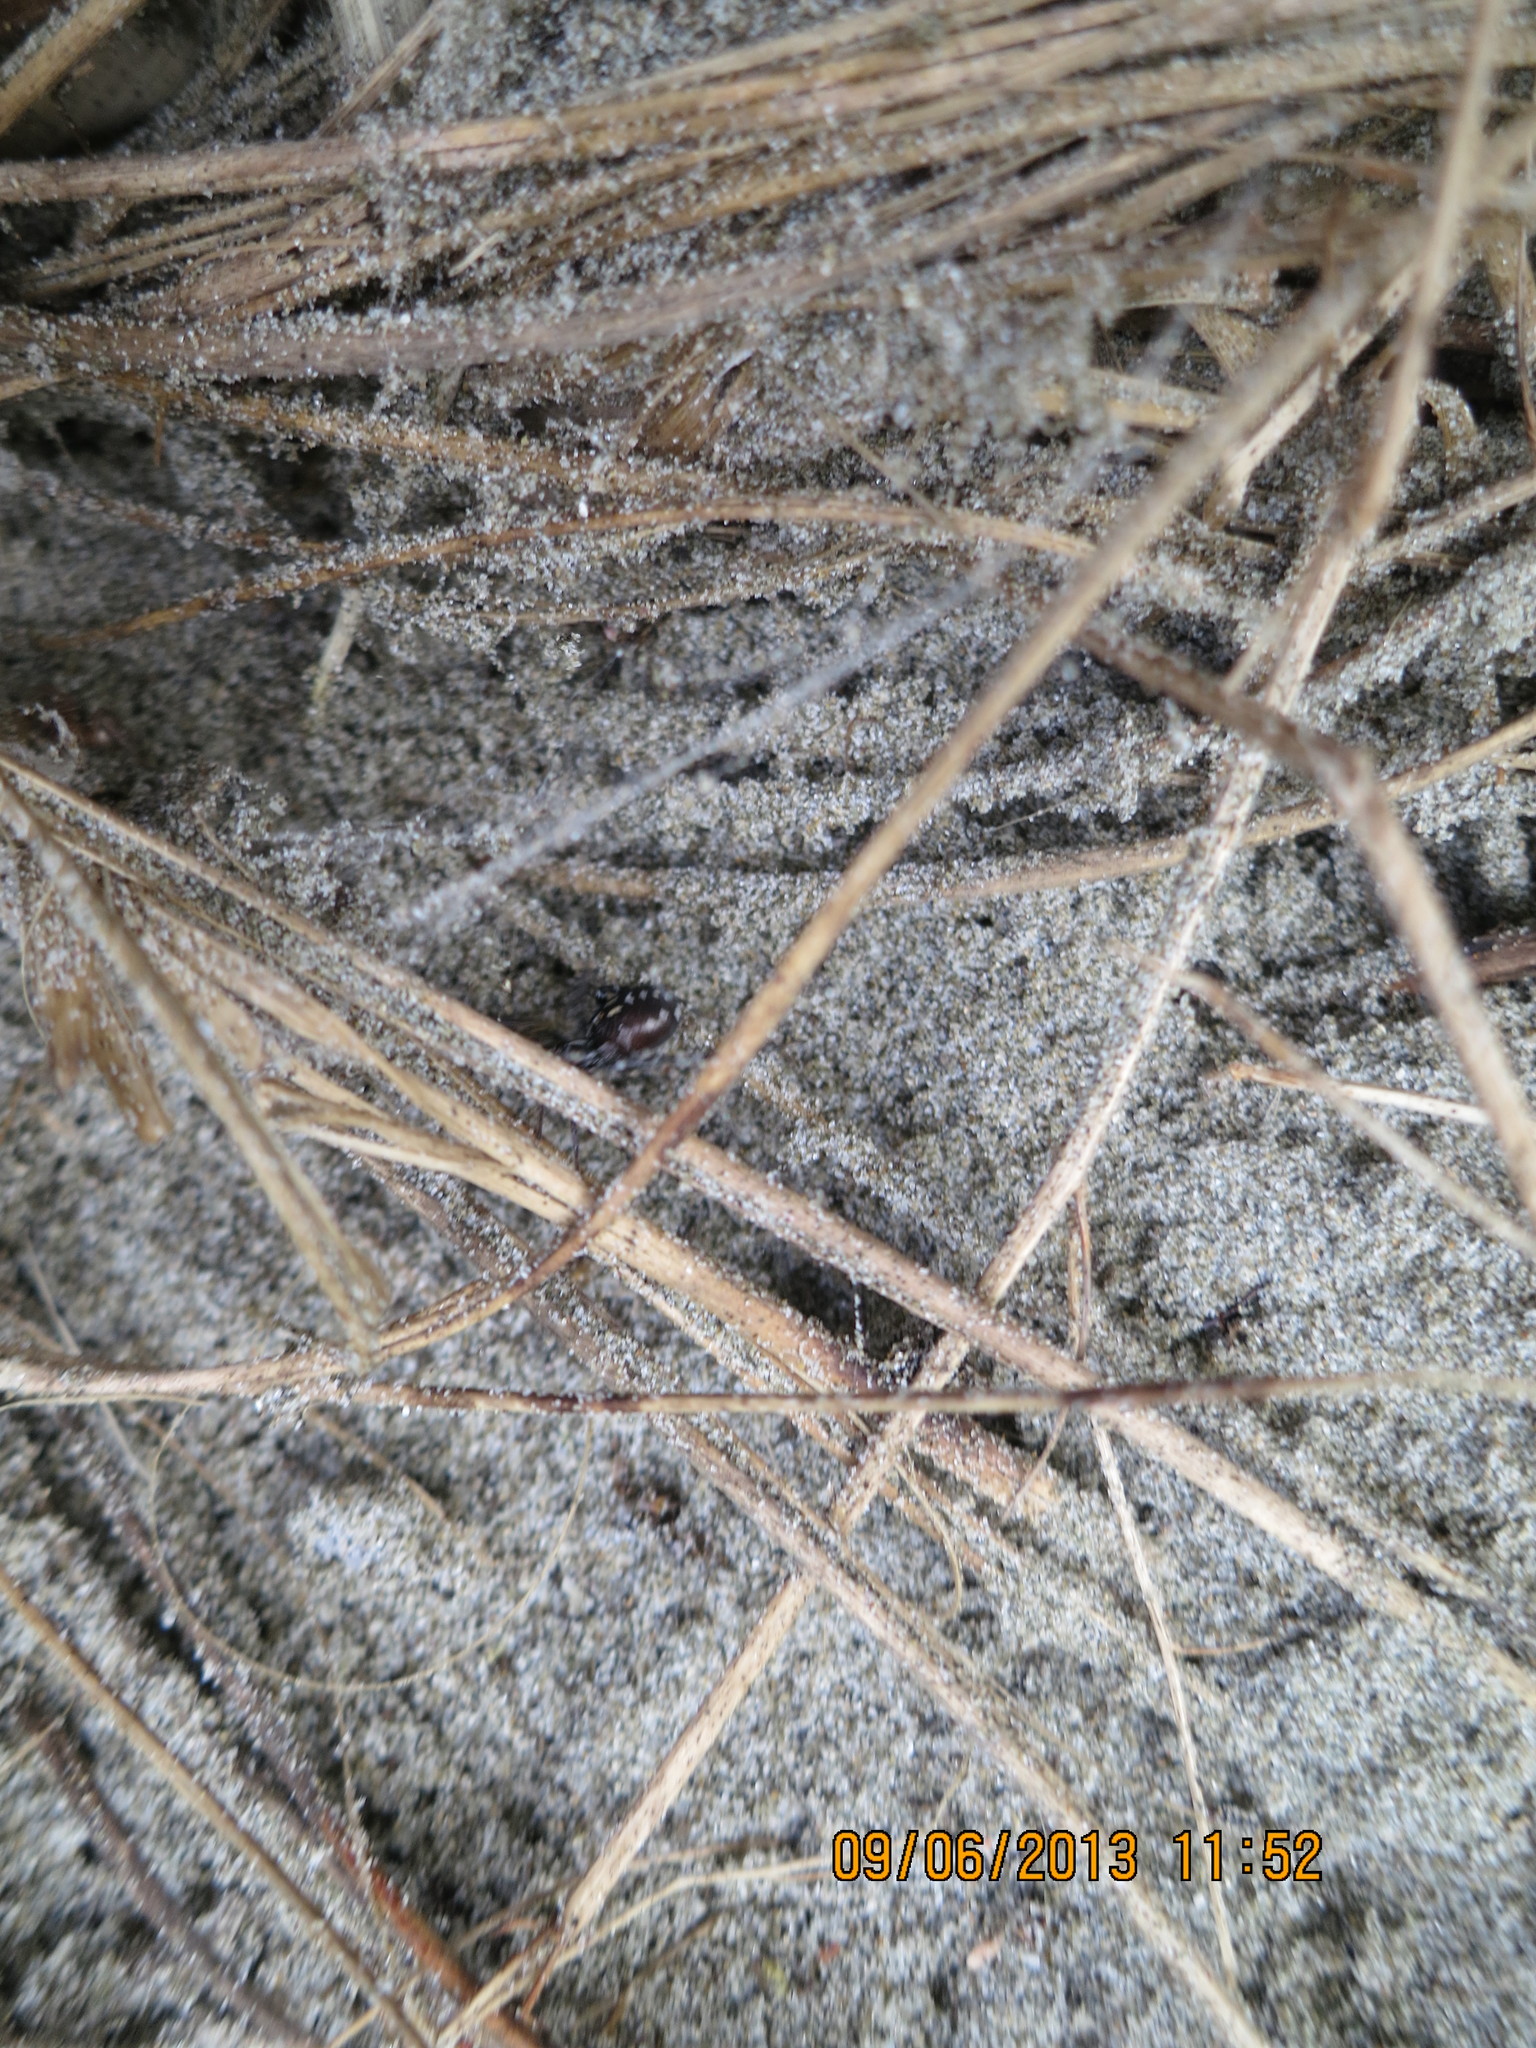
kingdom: Animalia
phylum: Arthropoda
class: Arachnida
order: Araneae
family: Theridiidae
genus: Steatoda
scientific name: Steatoda lepida
